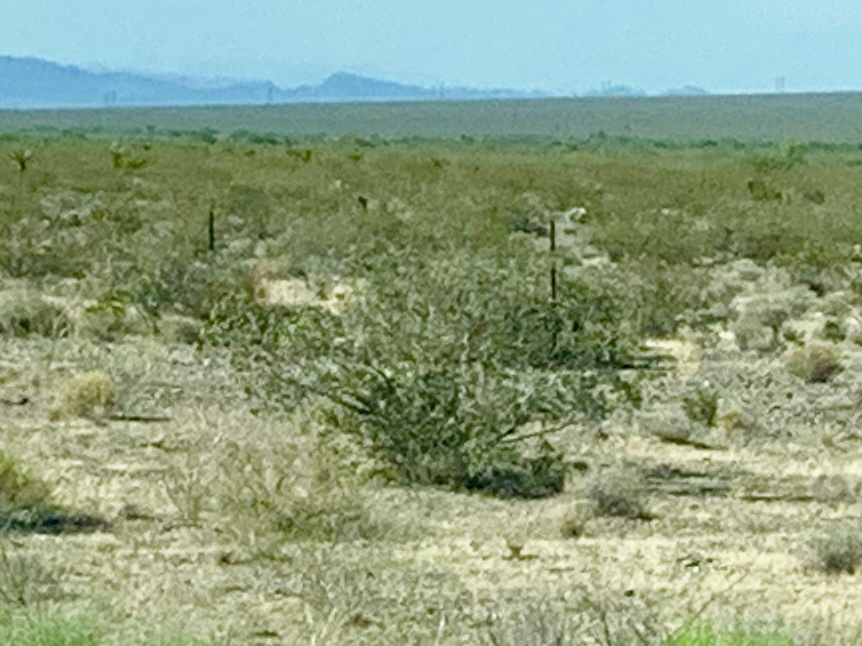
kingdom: Plantae
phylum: Tracheophyta
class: Magnoliopsida
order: Zygophyllales
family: Zygophyllaceae
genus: Larrea
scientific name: Larrea tridentata
